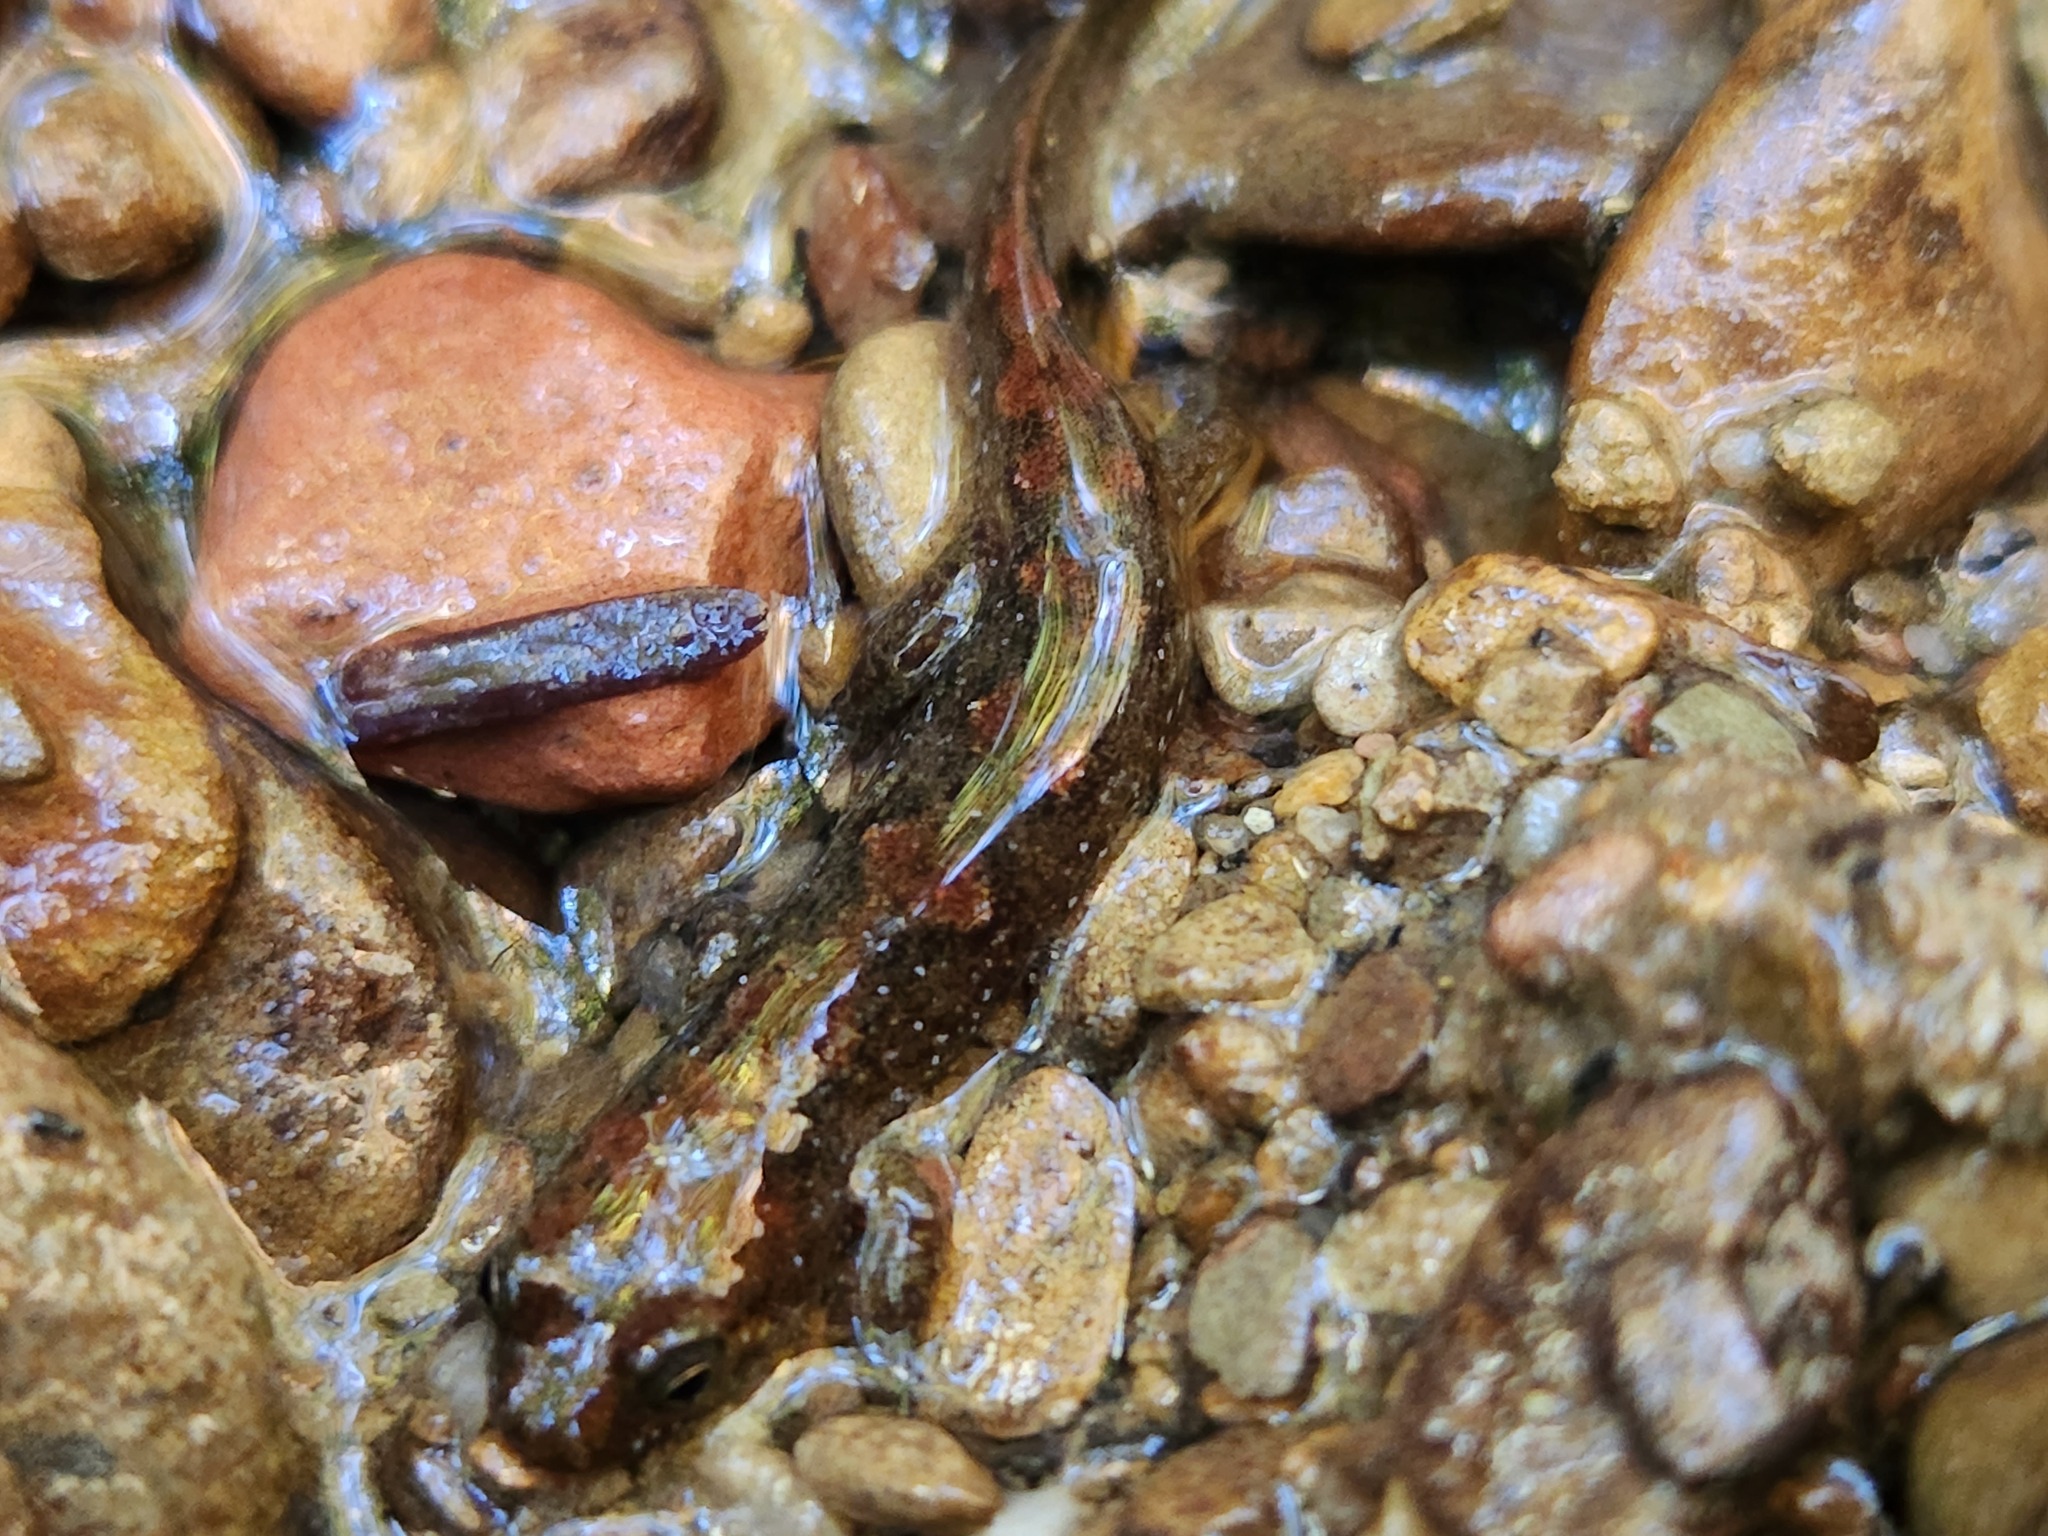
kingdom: Animalia
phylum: Chordata
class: Amphibia
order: Caudata
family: Plethodontidae
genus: Desmognathus
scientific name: Desmognathus
